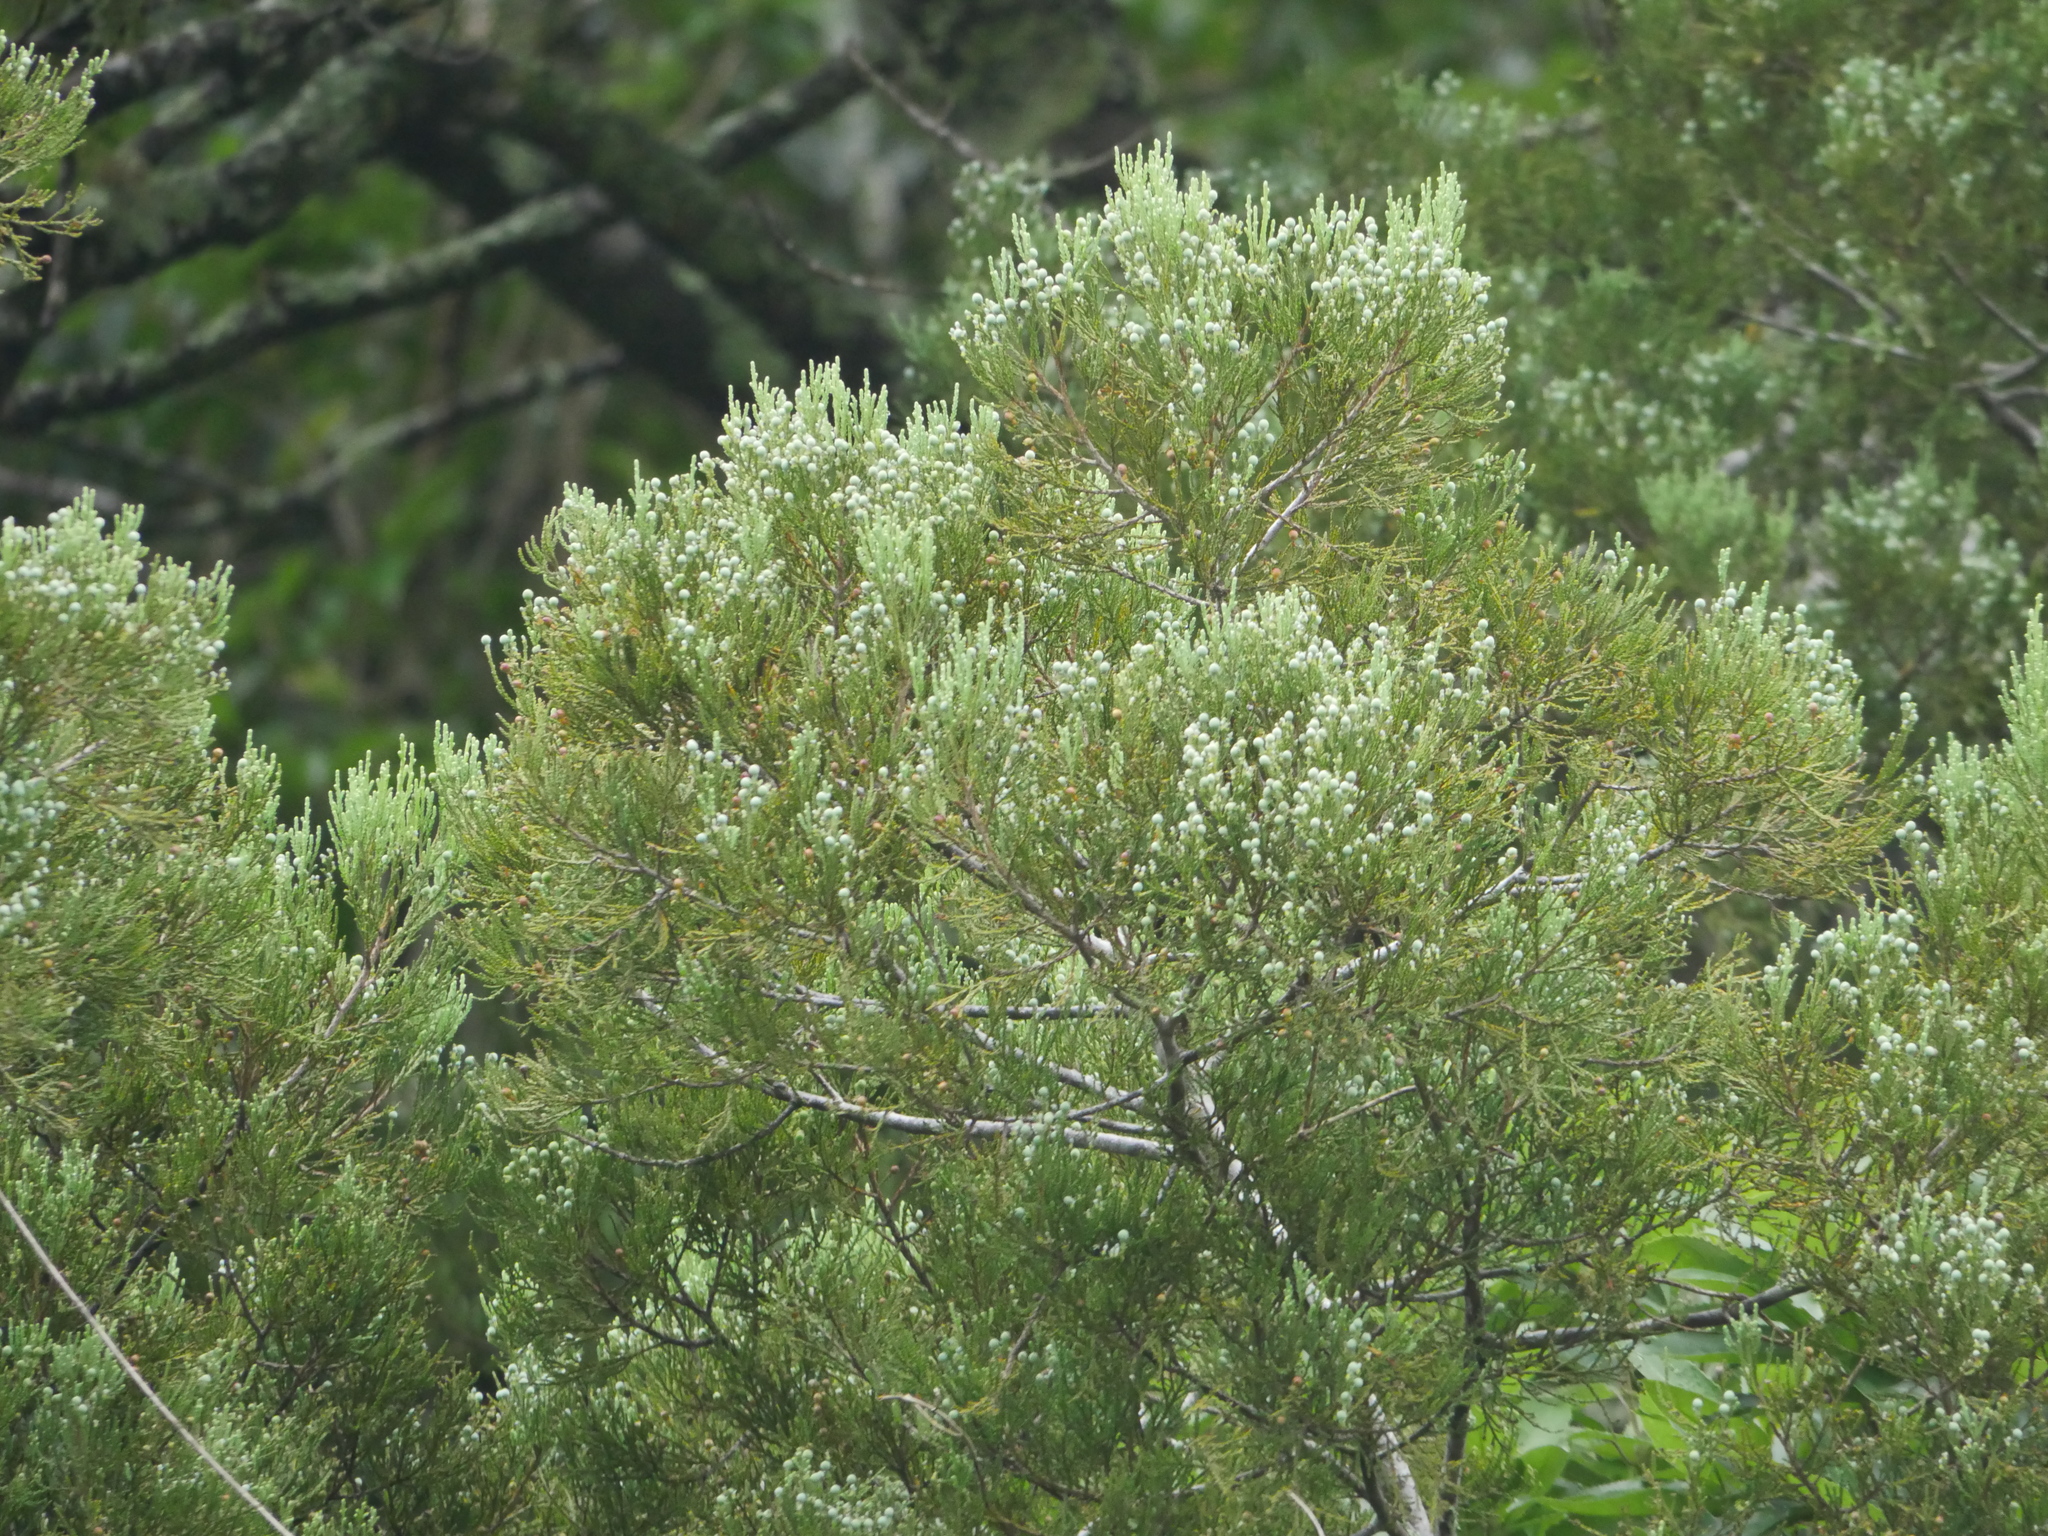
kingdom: Plantae
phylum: Tracheophyta
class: Pinopsida
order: Pinales
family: Podocarpaceae
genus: Dacrycarpus
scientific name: Dacrycarpus dacrydioides
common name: White pine
